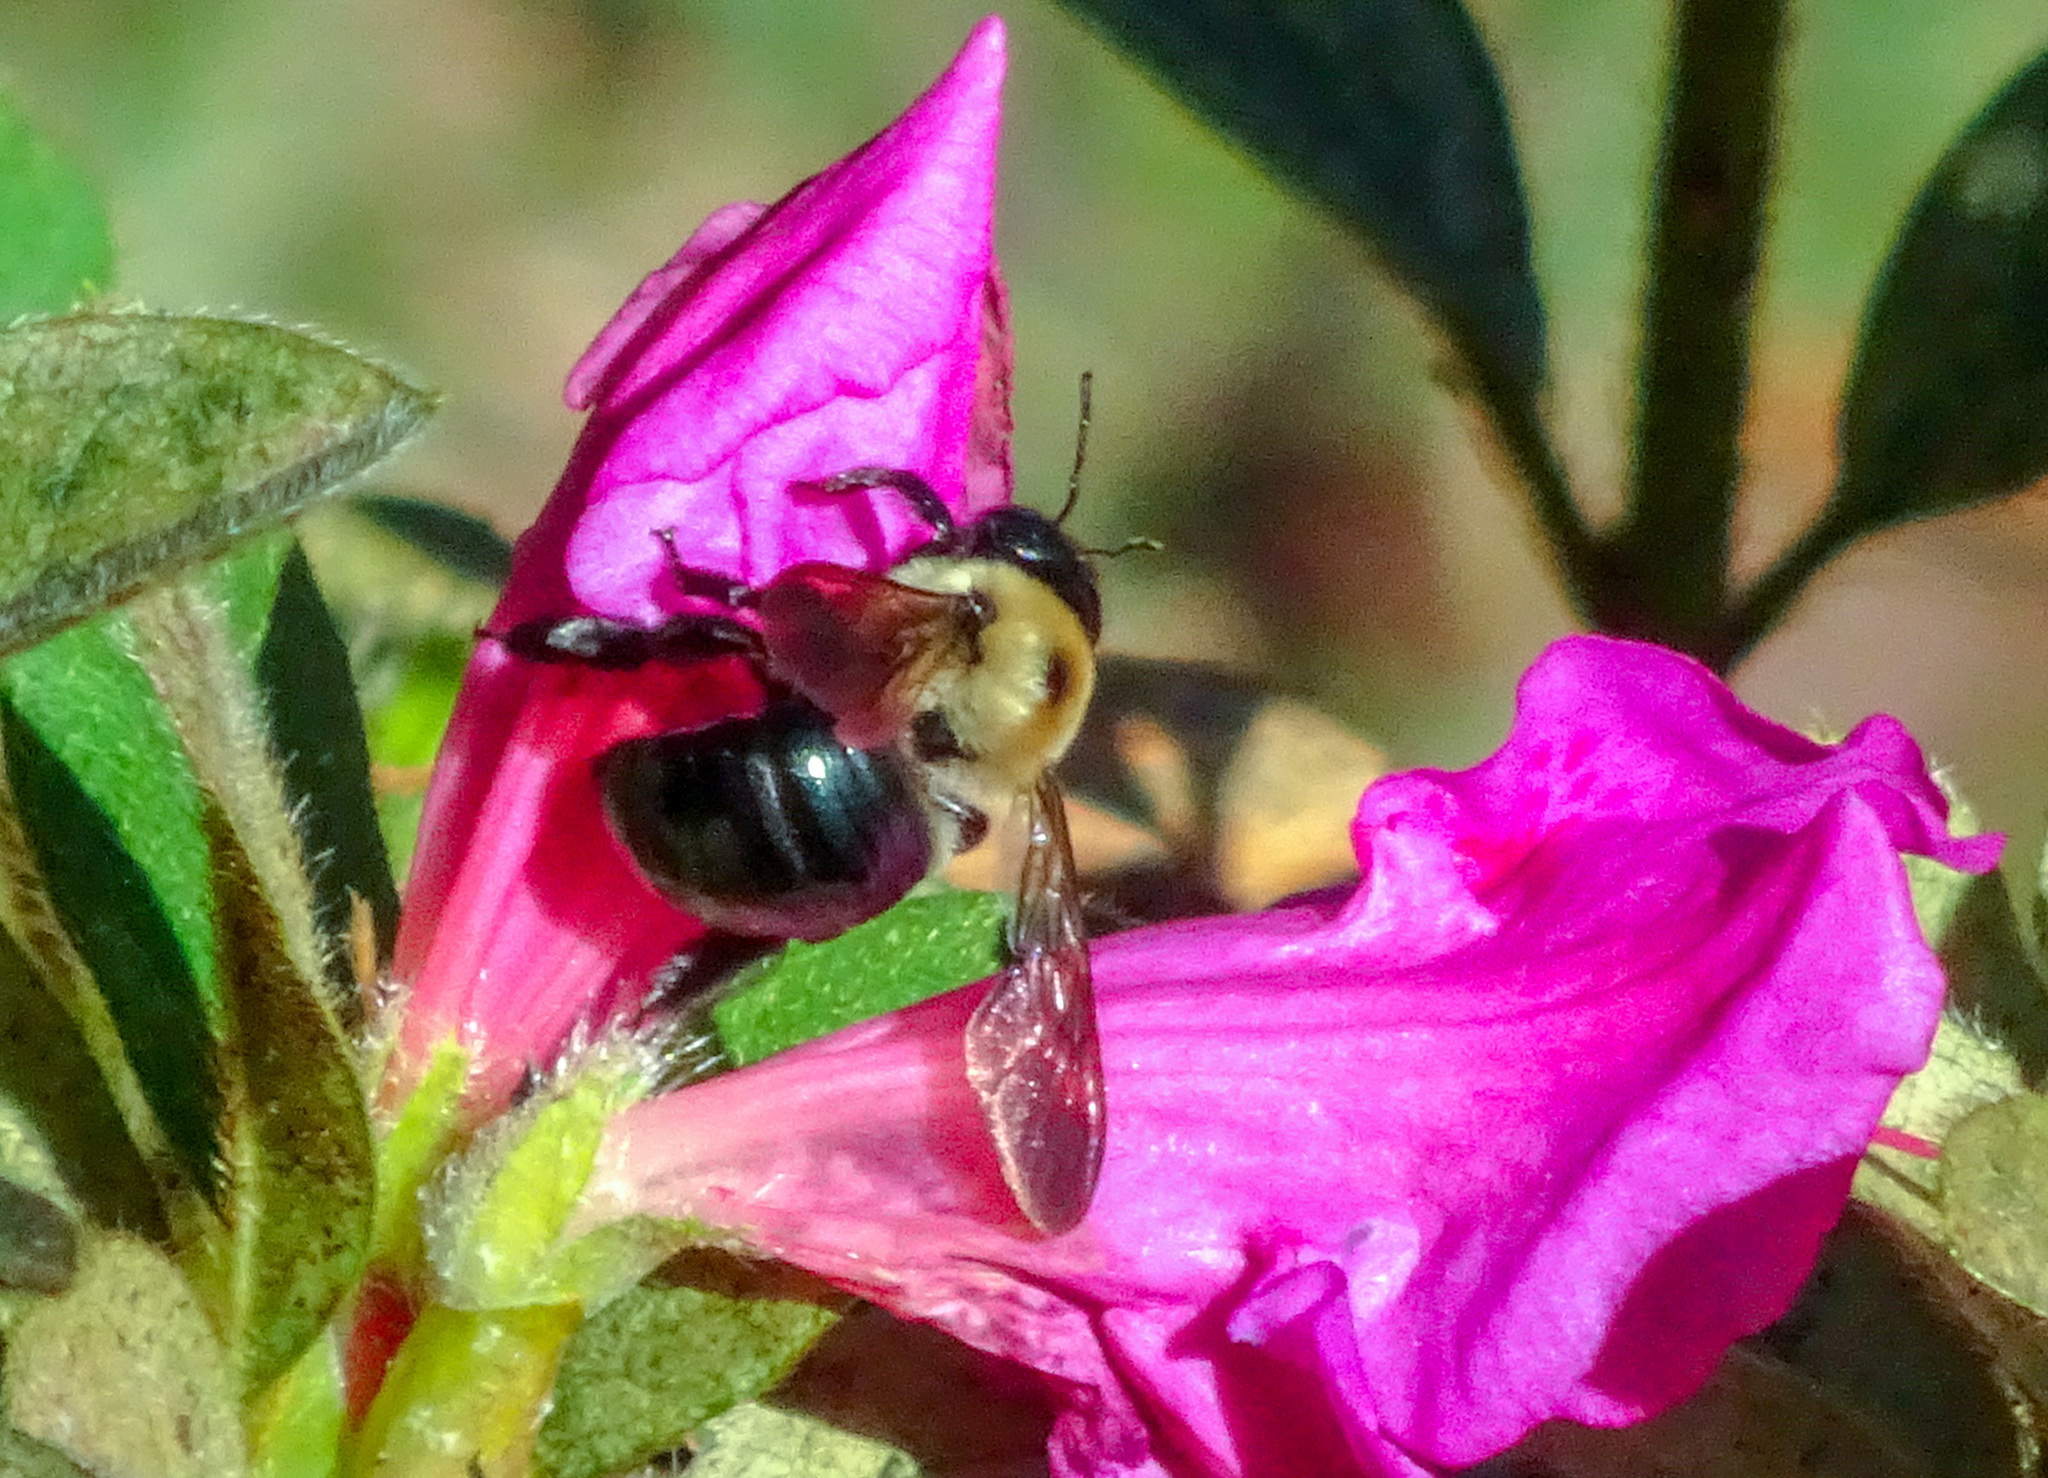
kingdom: Animalia
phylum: Arthropoda
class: Insecta
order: Hymenoptera
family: Apidae
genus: Xylocopa
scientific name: Xylocopa virginica
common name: Carpenter bee
